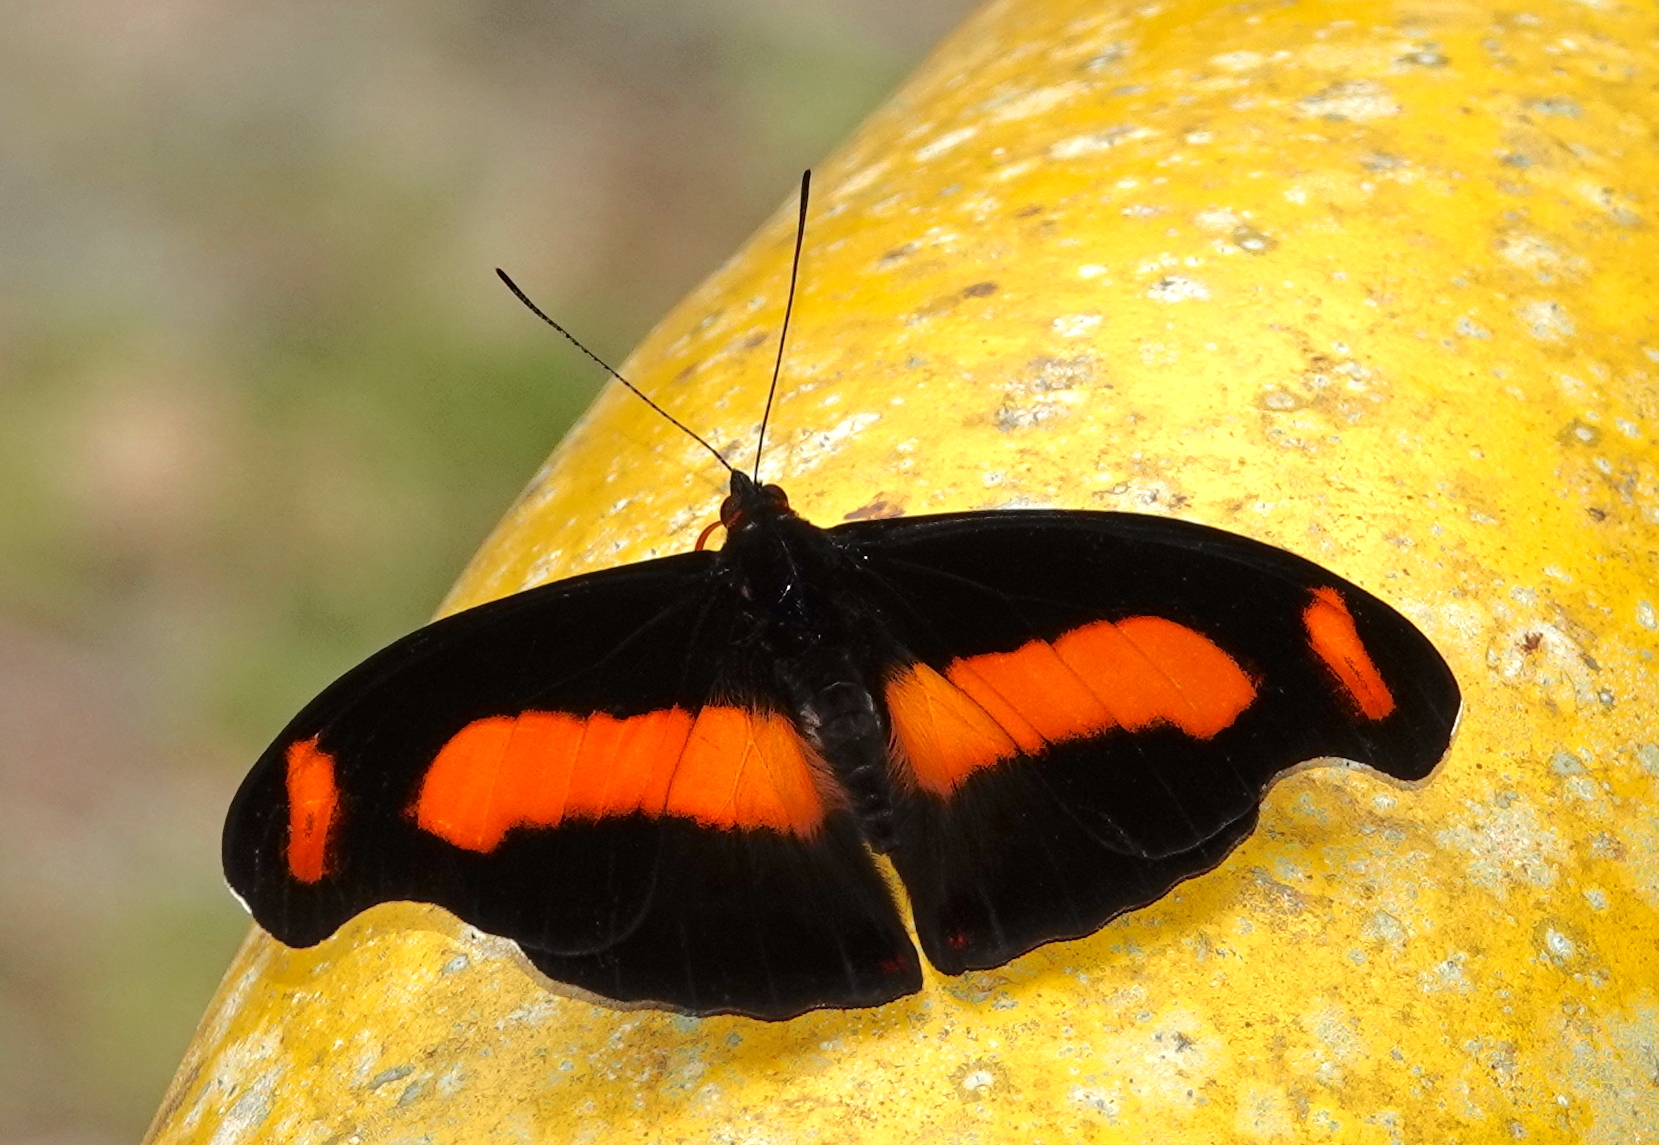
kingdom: Animalia
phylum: Arthropoda
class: Insecta
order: Lepidoptera
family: Nymphalidae
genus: Catonephele
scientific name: Catonephele chromis
